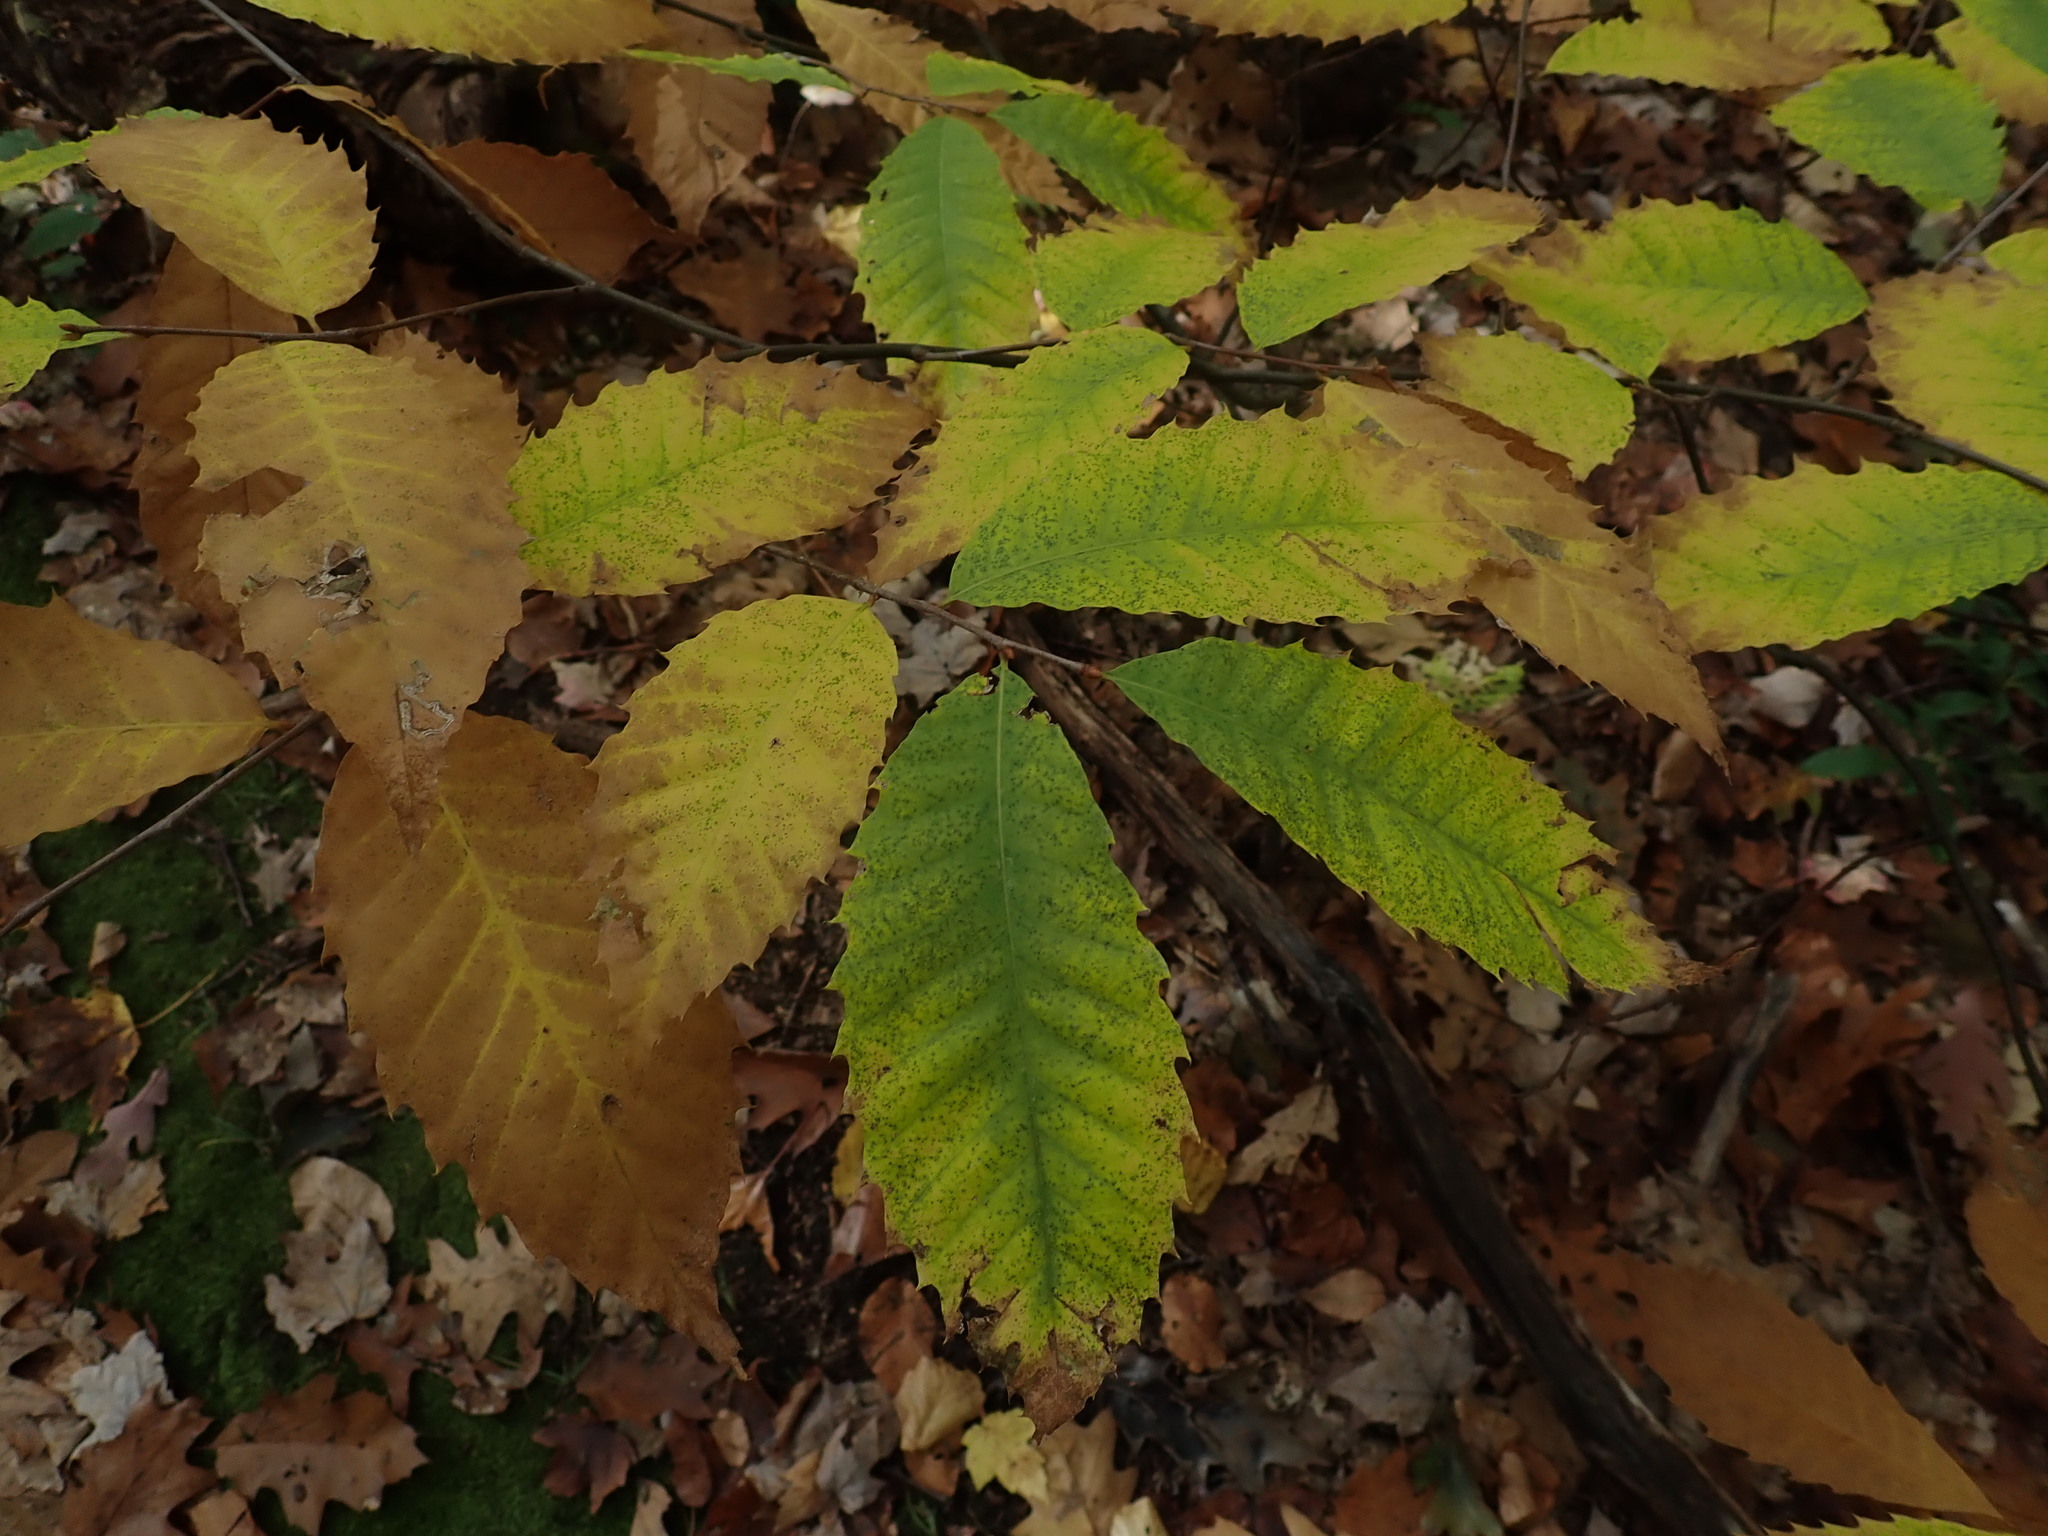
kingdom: Plantae
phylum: Tracheophyta
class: Magnoliopsida
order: Fagales
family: Fagaceae
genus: Castanea
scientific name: Castanea dentata
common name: American chestnut
